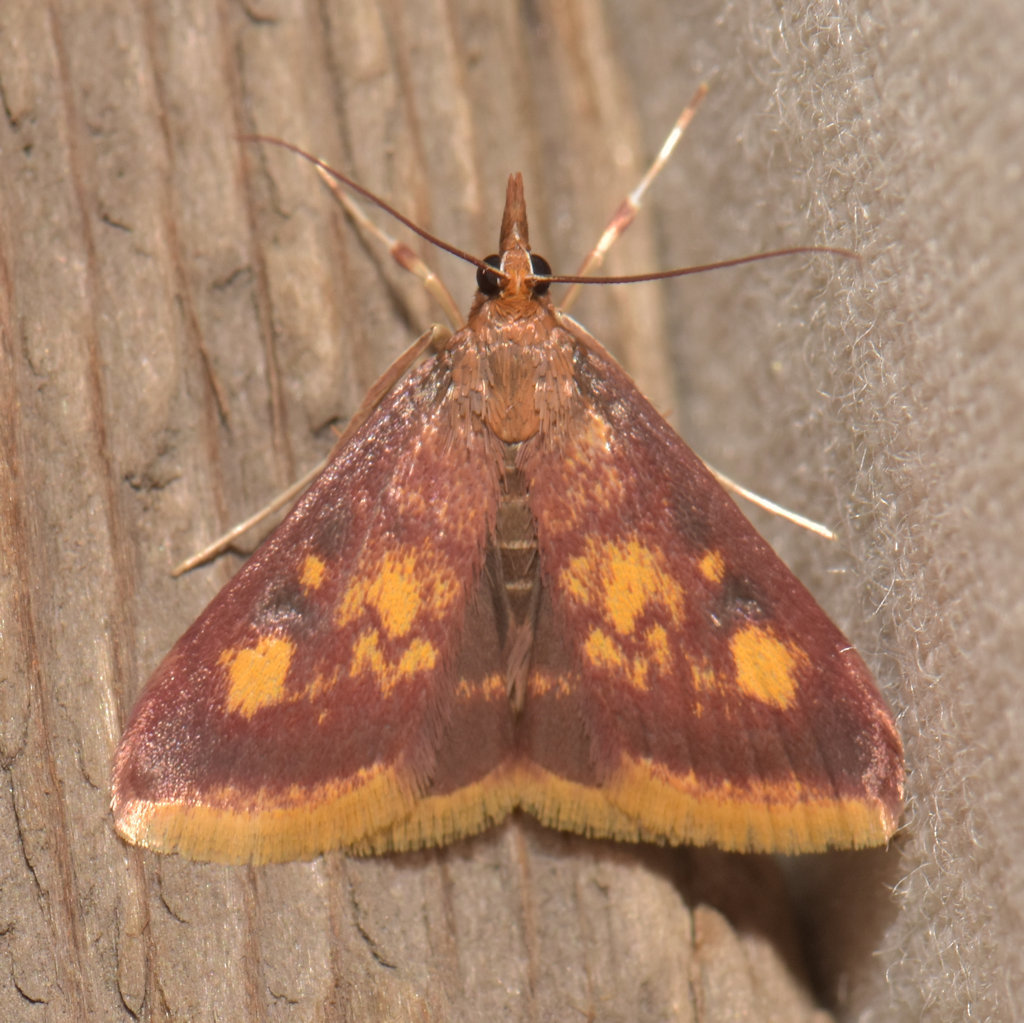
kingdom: Animalia
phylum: Arthropoda
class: Insecta
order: Lepidoptera
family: Crambidae
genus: Pyrausta
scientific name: Pyrausta acrionalis
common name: Mint-loving pyrausta moth
